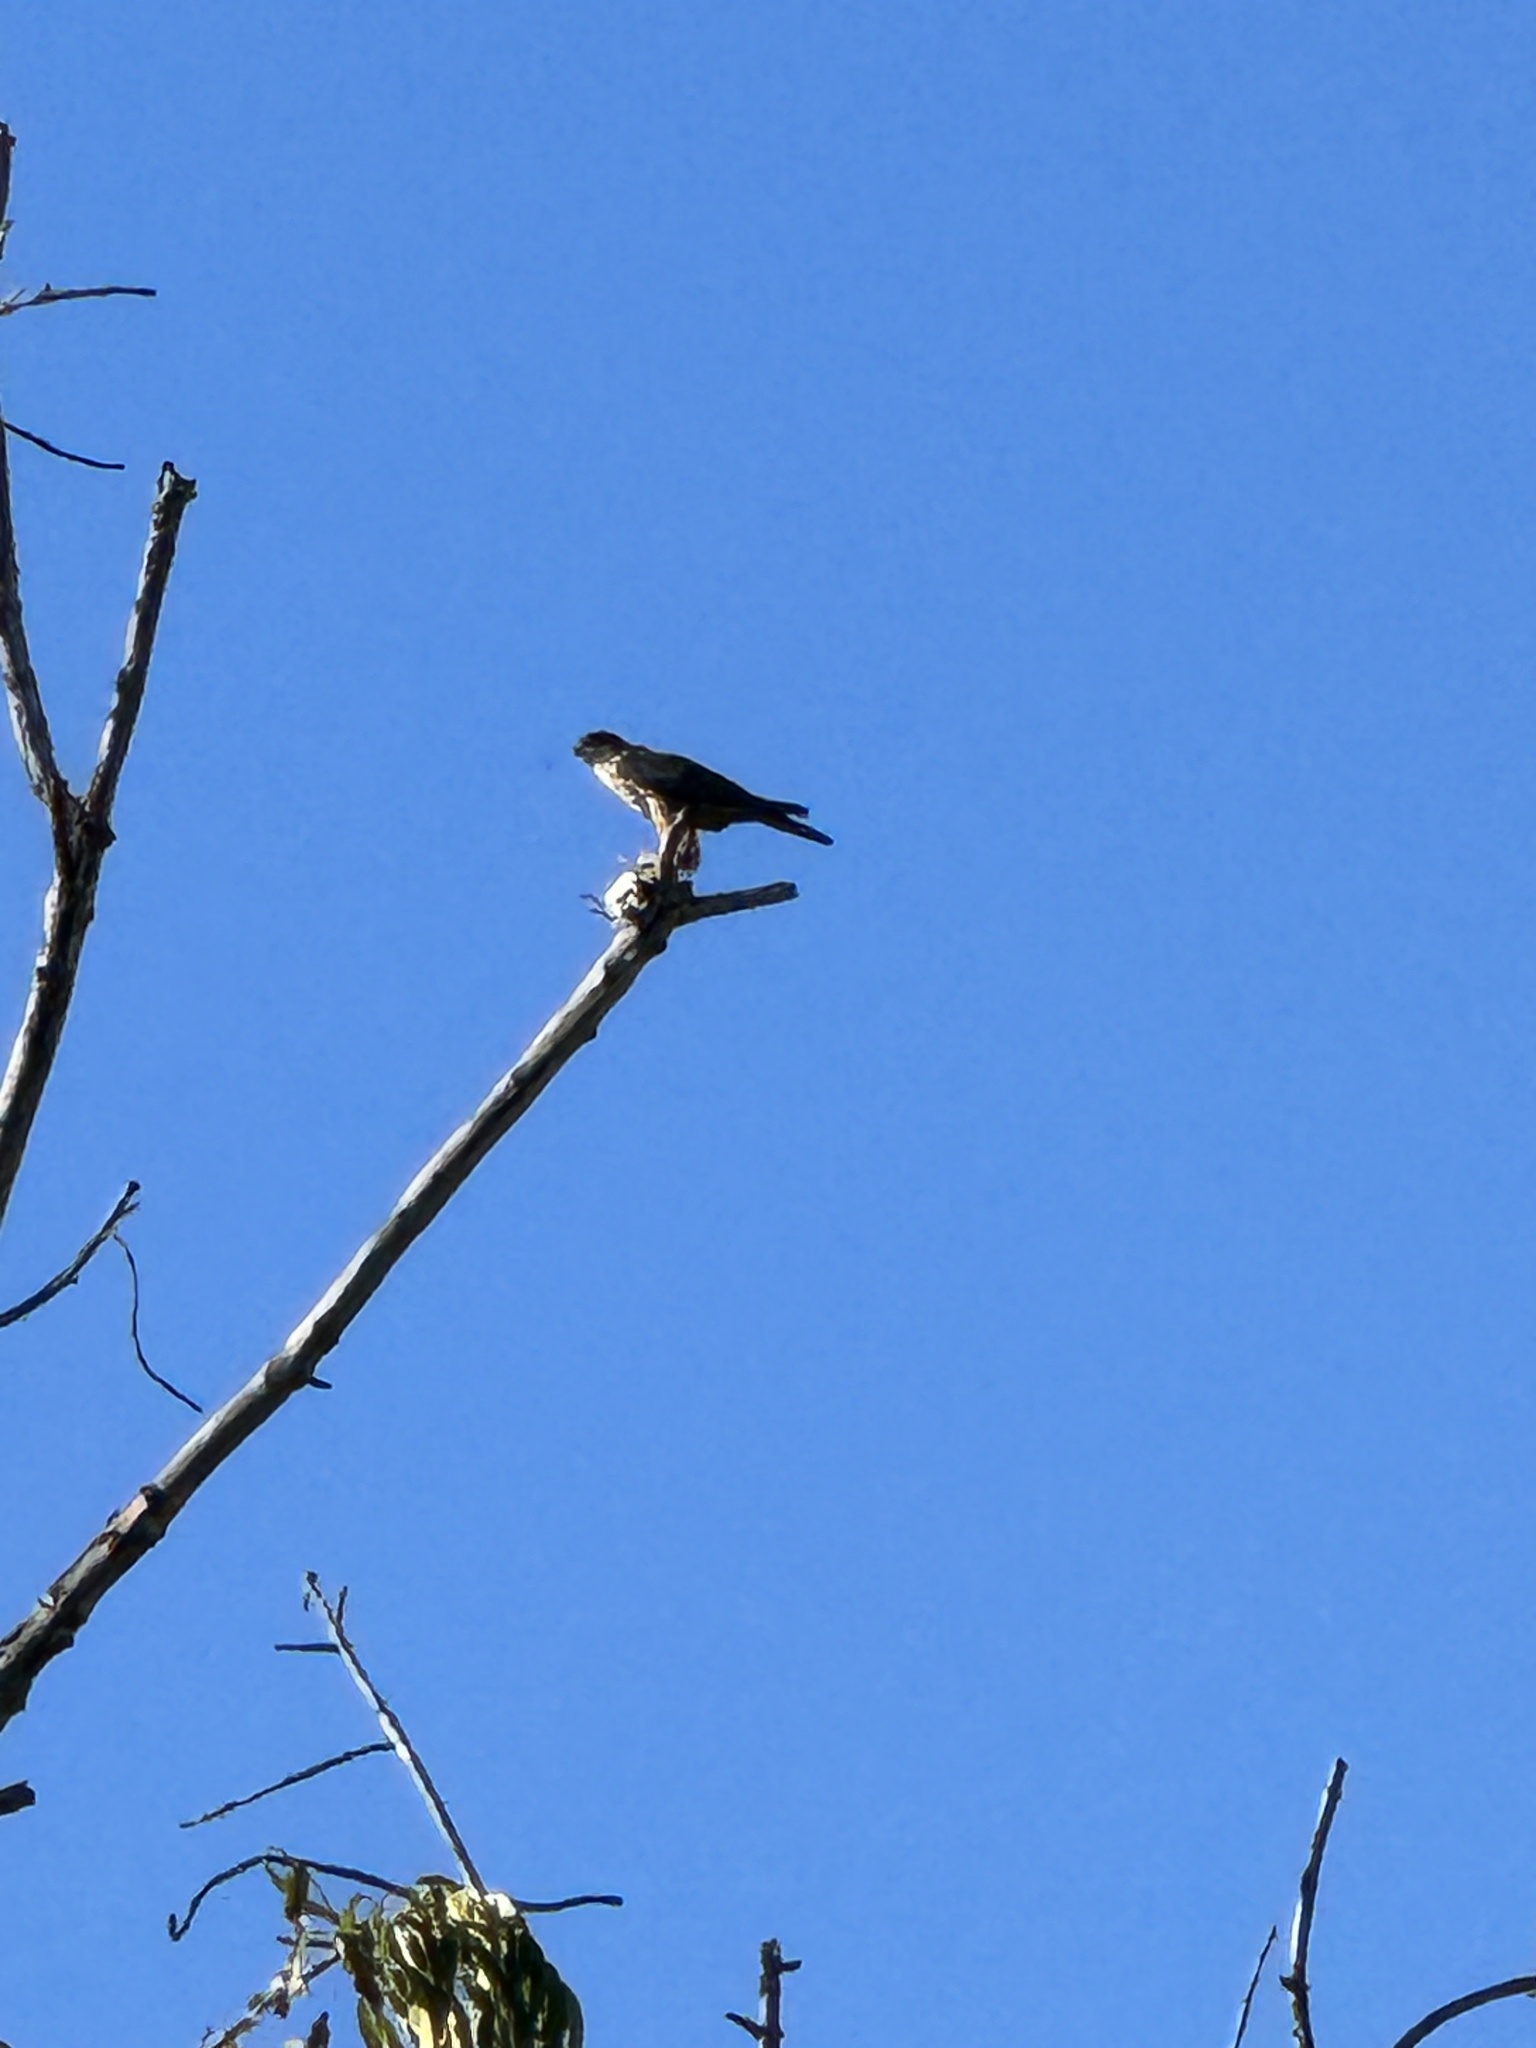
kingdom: Animalia
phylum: Chordata
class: Aves
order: Falconiformes
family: Falconidae
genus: Falco
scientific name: Falco columbarius
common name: Merlin
